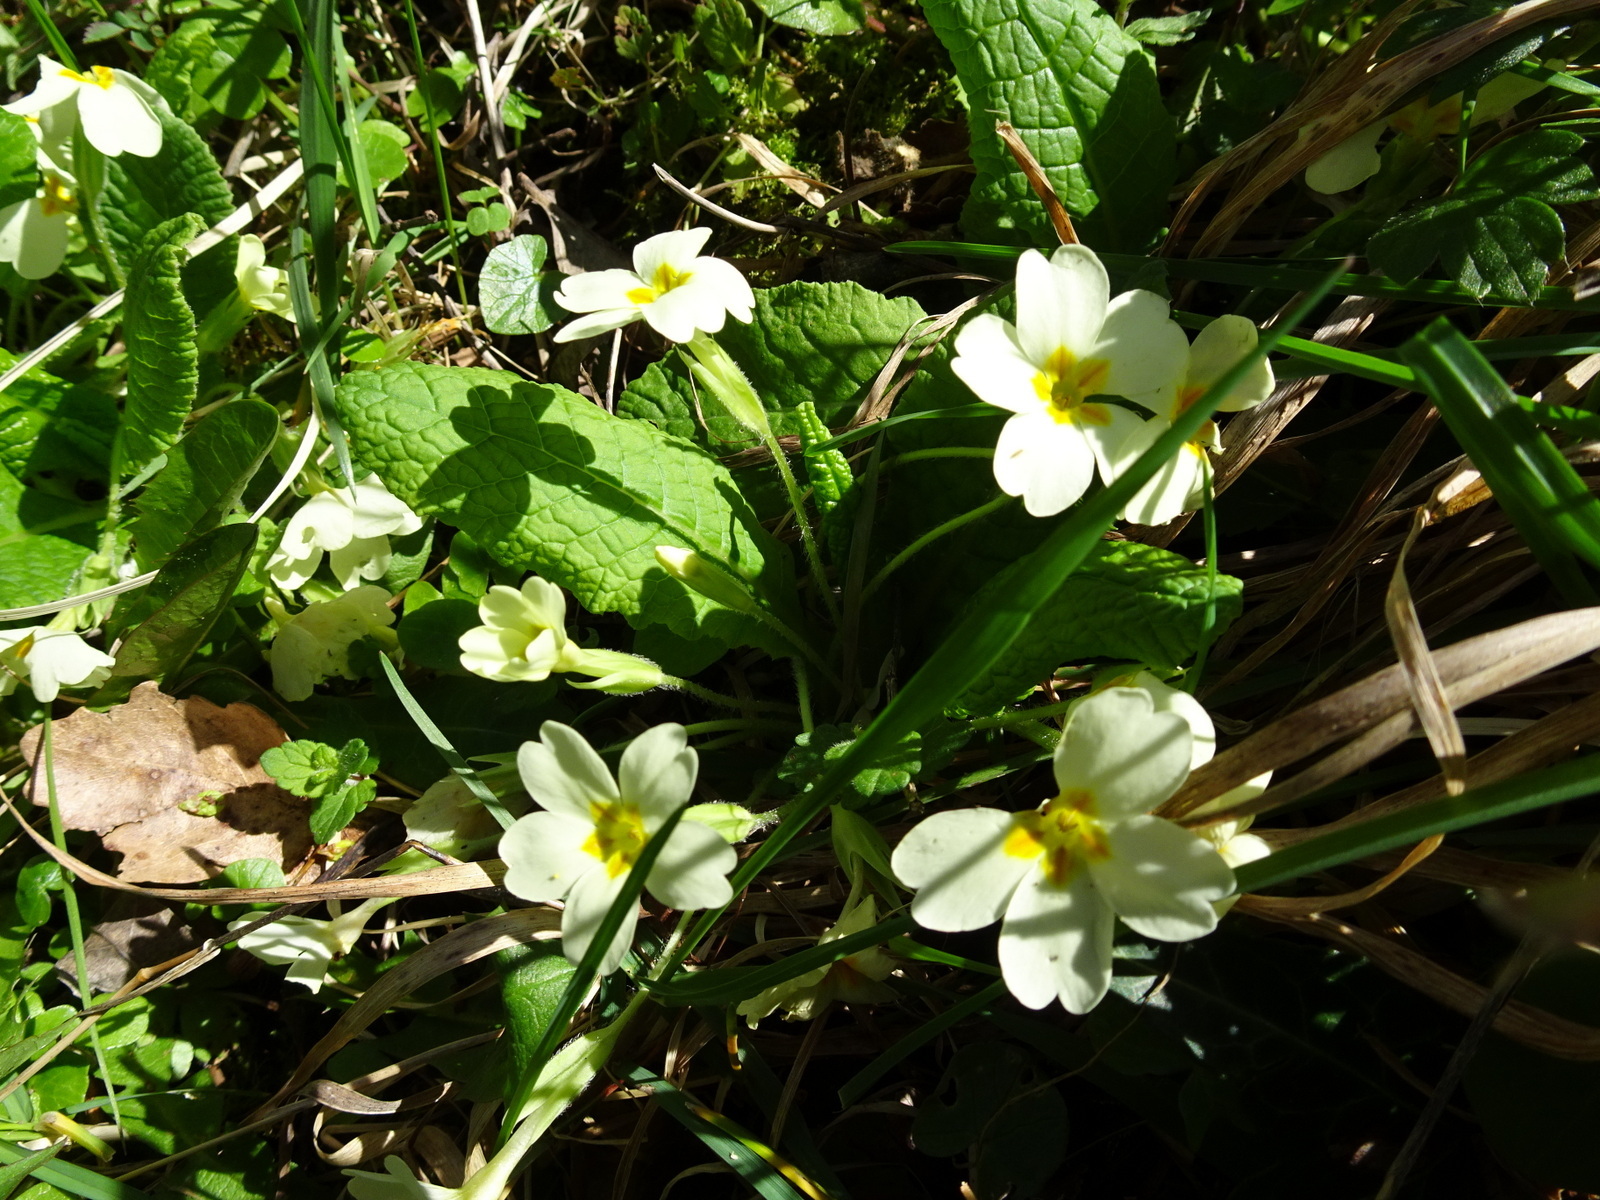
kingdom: Plantae
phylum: Tracheophyta
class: Magnoliopsida
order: Ericales
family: Primulaceae
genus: Primula
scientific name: Primula vulgaris
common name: Primrose
